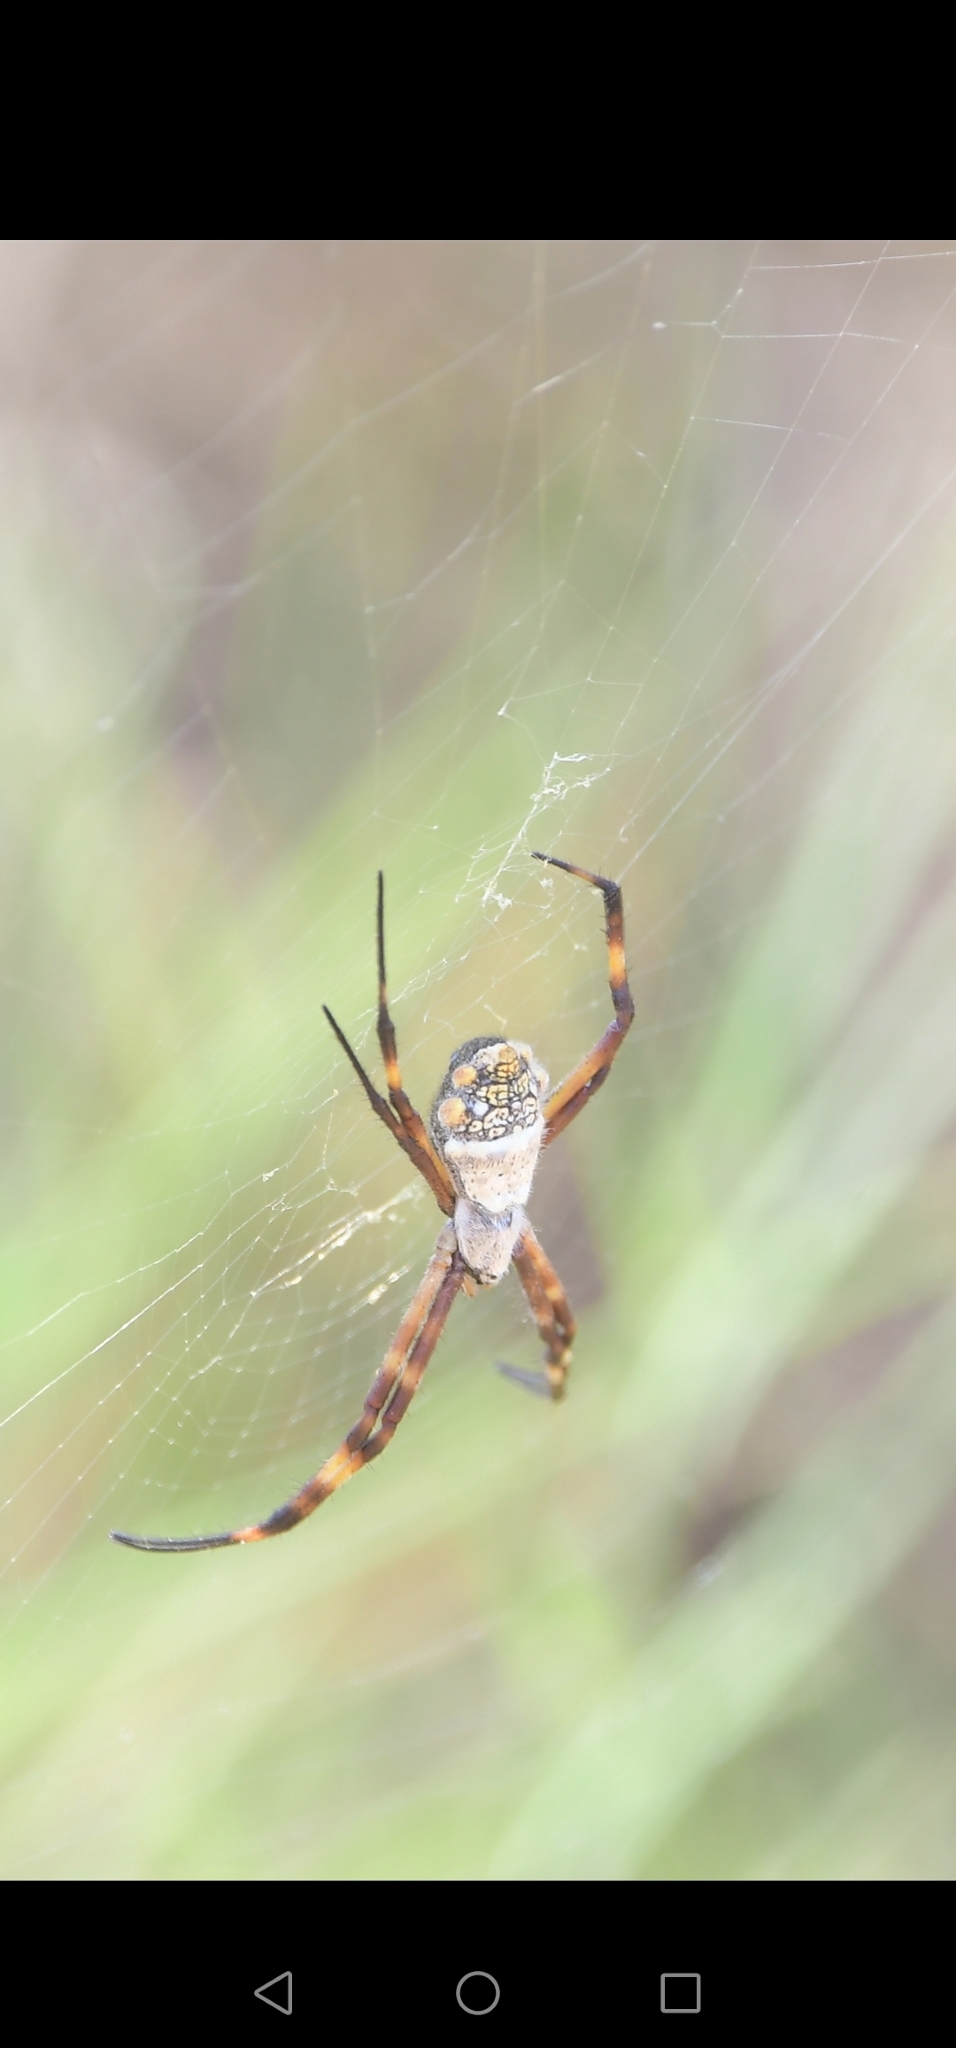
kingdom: Animalia
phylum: Arthropoda
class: Arachnida
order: Araneae
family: Araneidae
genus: Argiope
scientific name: Argiope argentata
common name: Orb weavers
